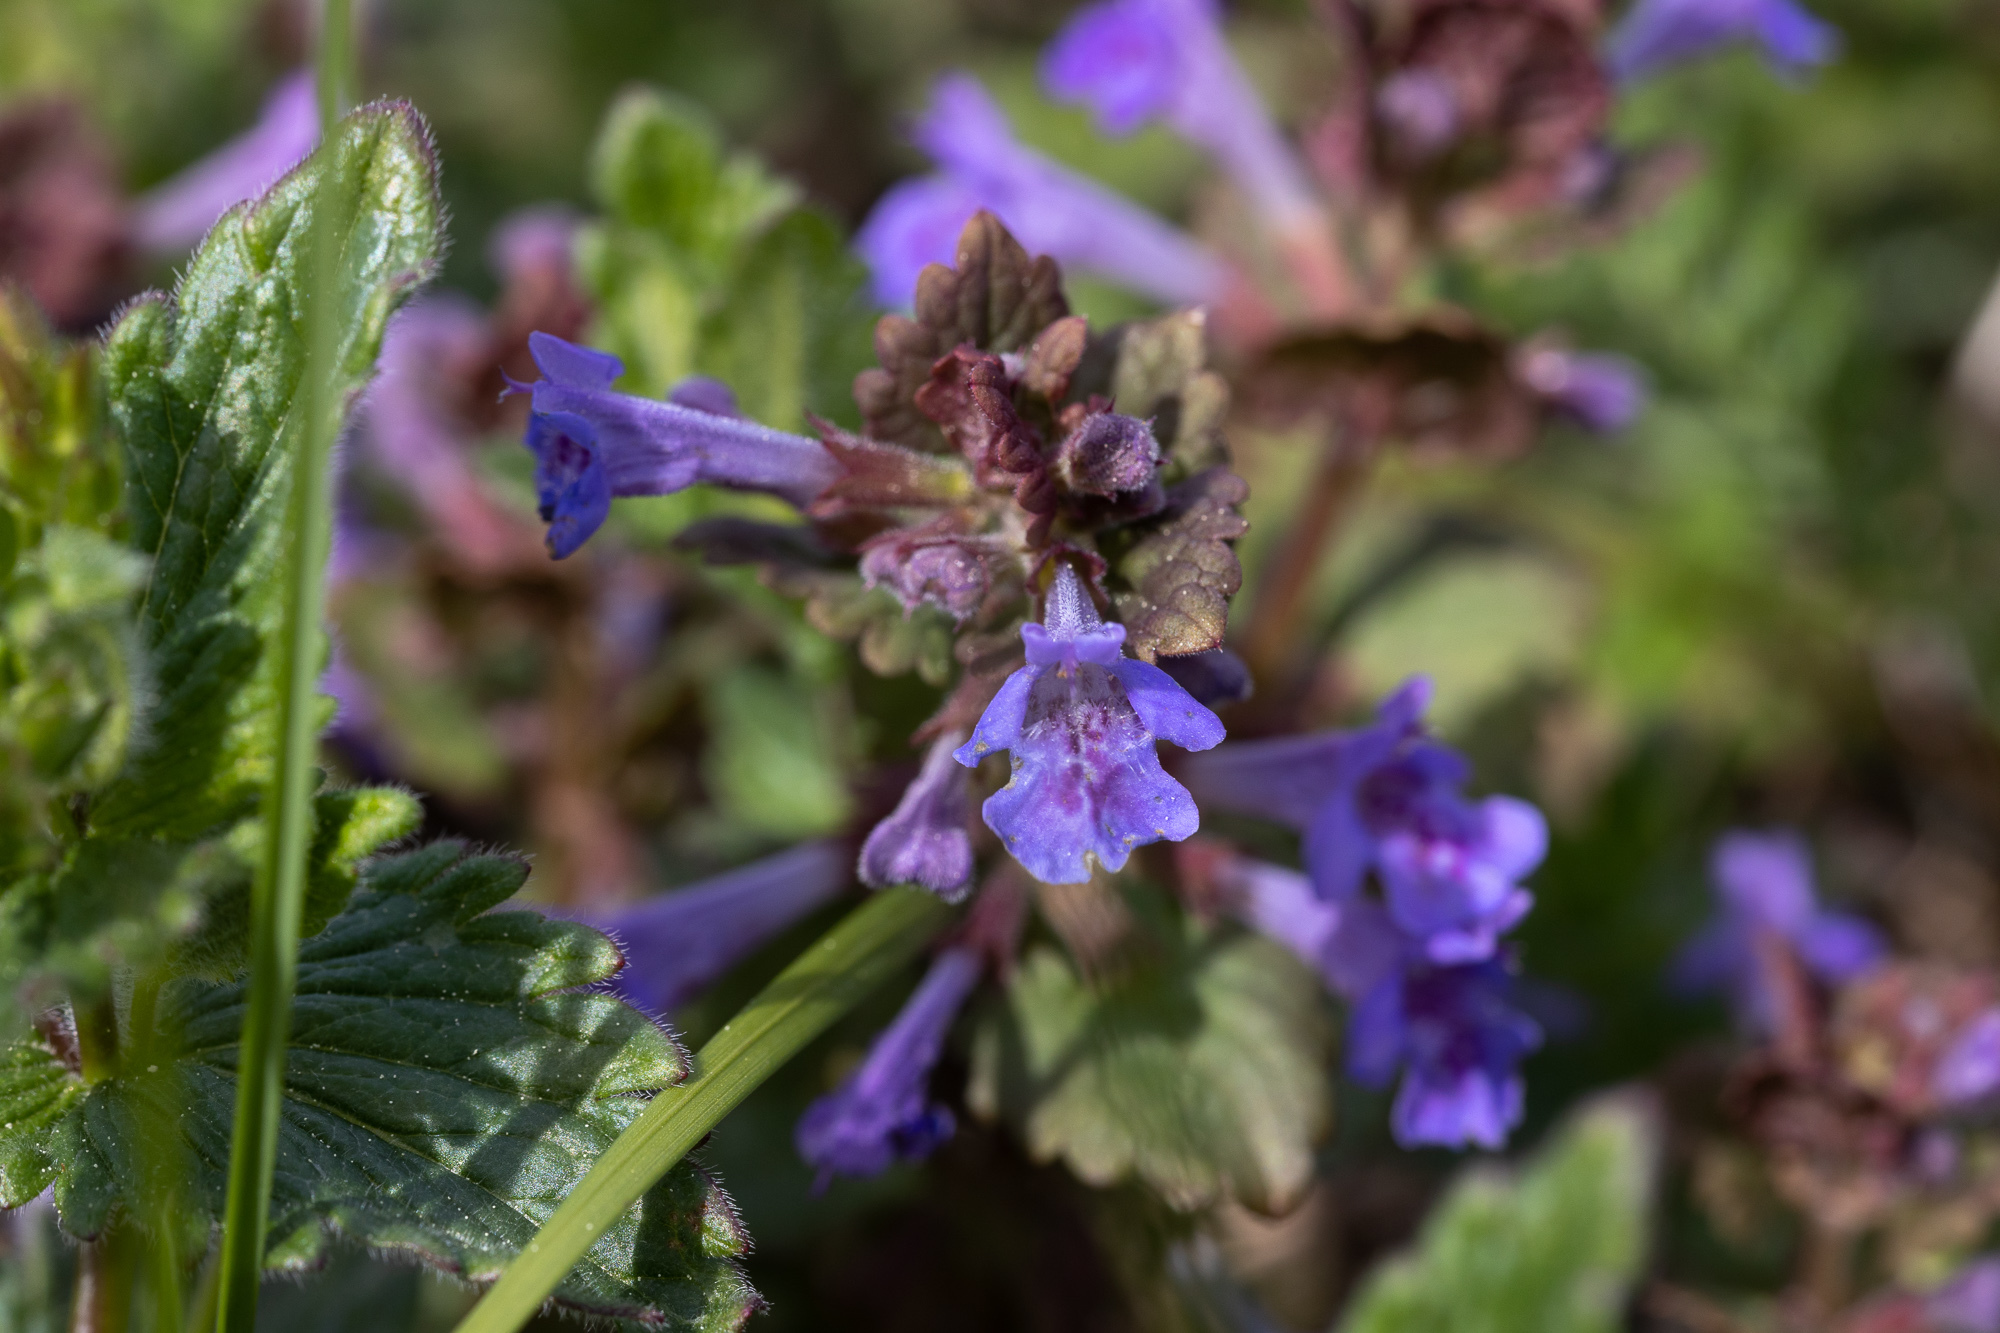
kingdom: Plantae
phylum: Tracheophyta
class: Magnoliopsida
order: Lamiales
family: Lamiaceae
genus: Glechoma
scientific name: Glechoma hederacea
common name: Ground ivy
